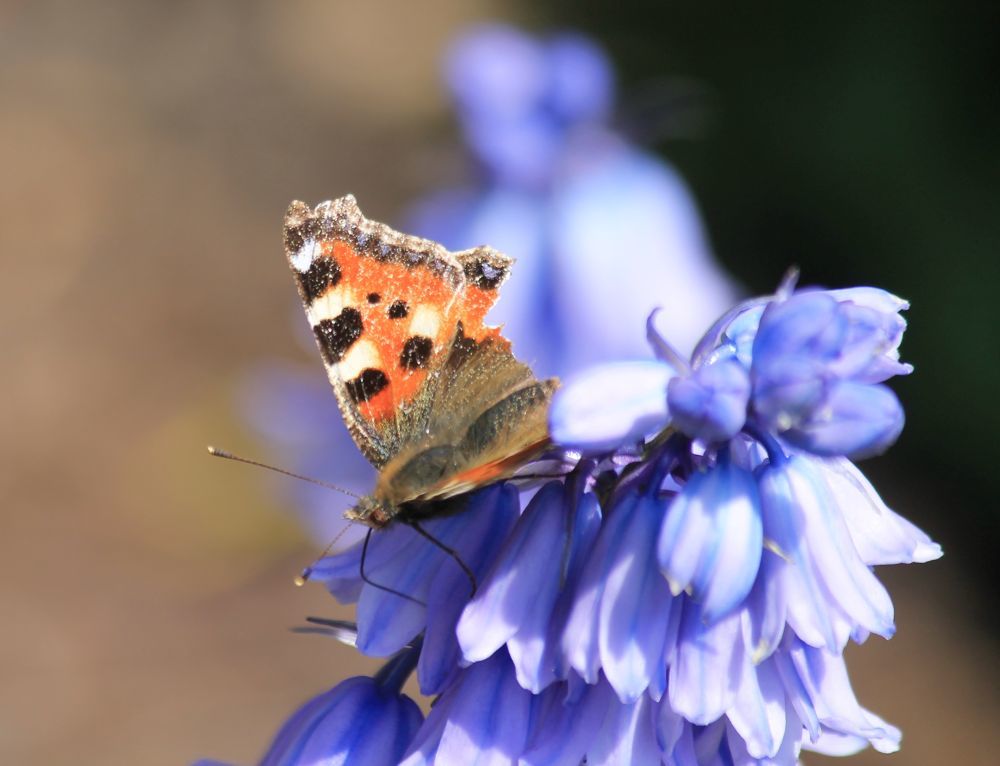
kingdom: Animalia
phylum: Arthropoda
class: Insecta
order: Lepidoptera
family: Nymphalidae
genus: Aglais
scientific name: Aglais urticae
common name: Small tortoiseshell
